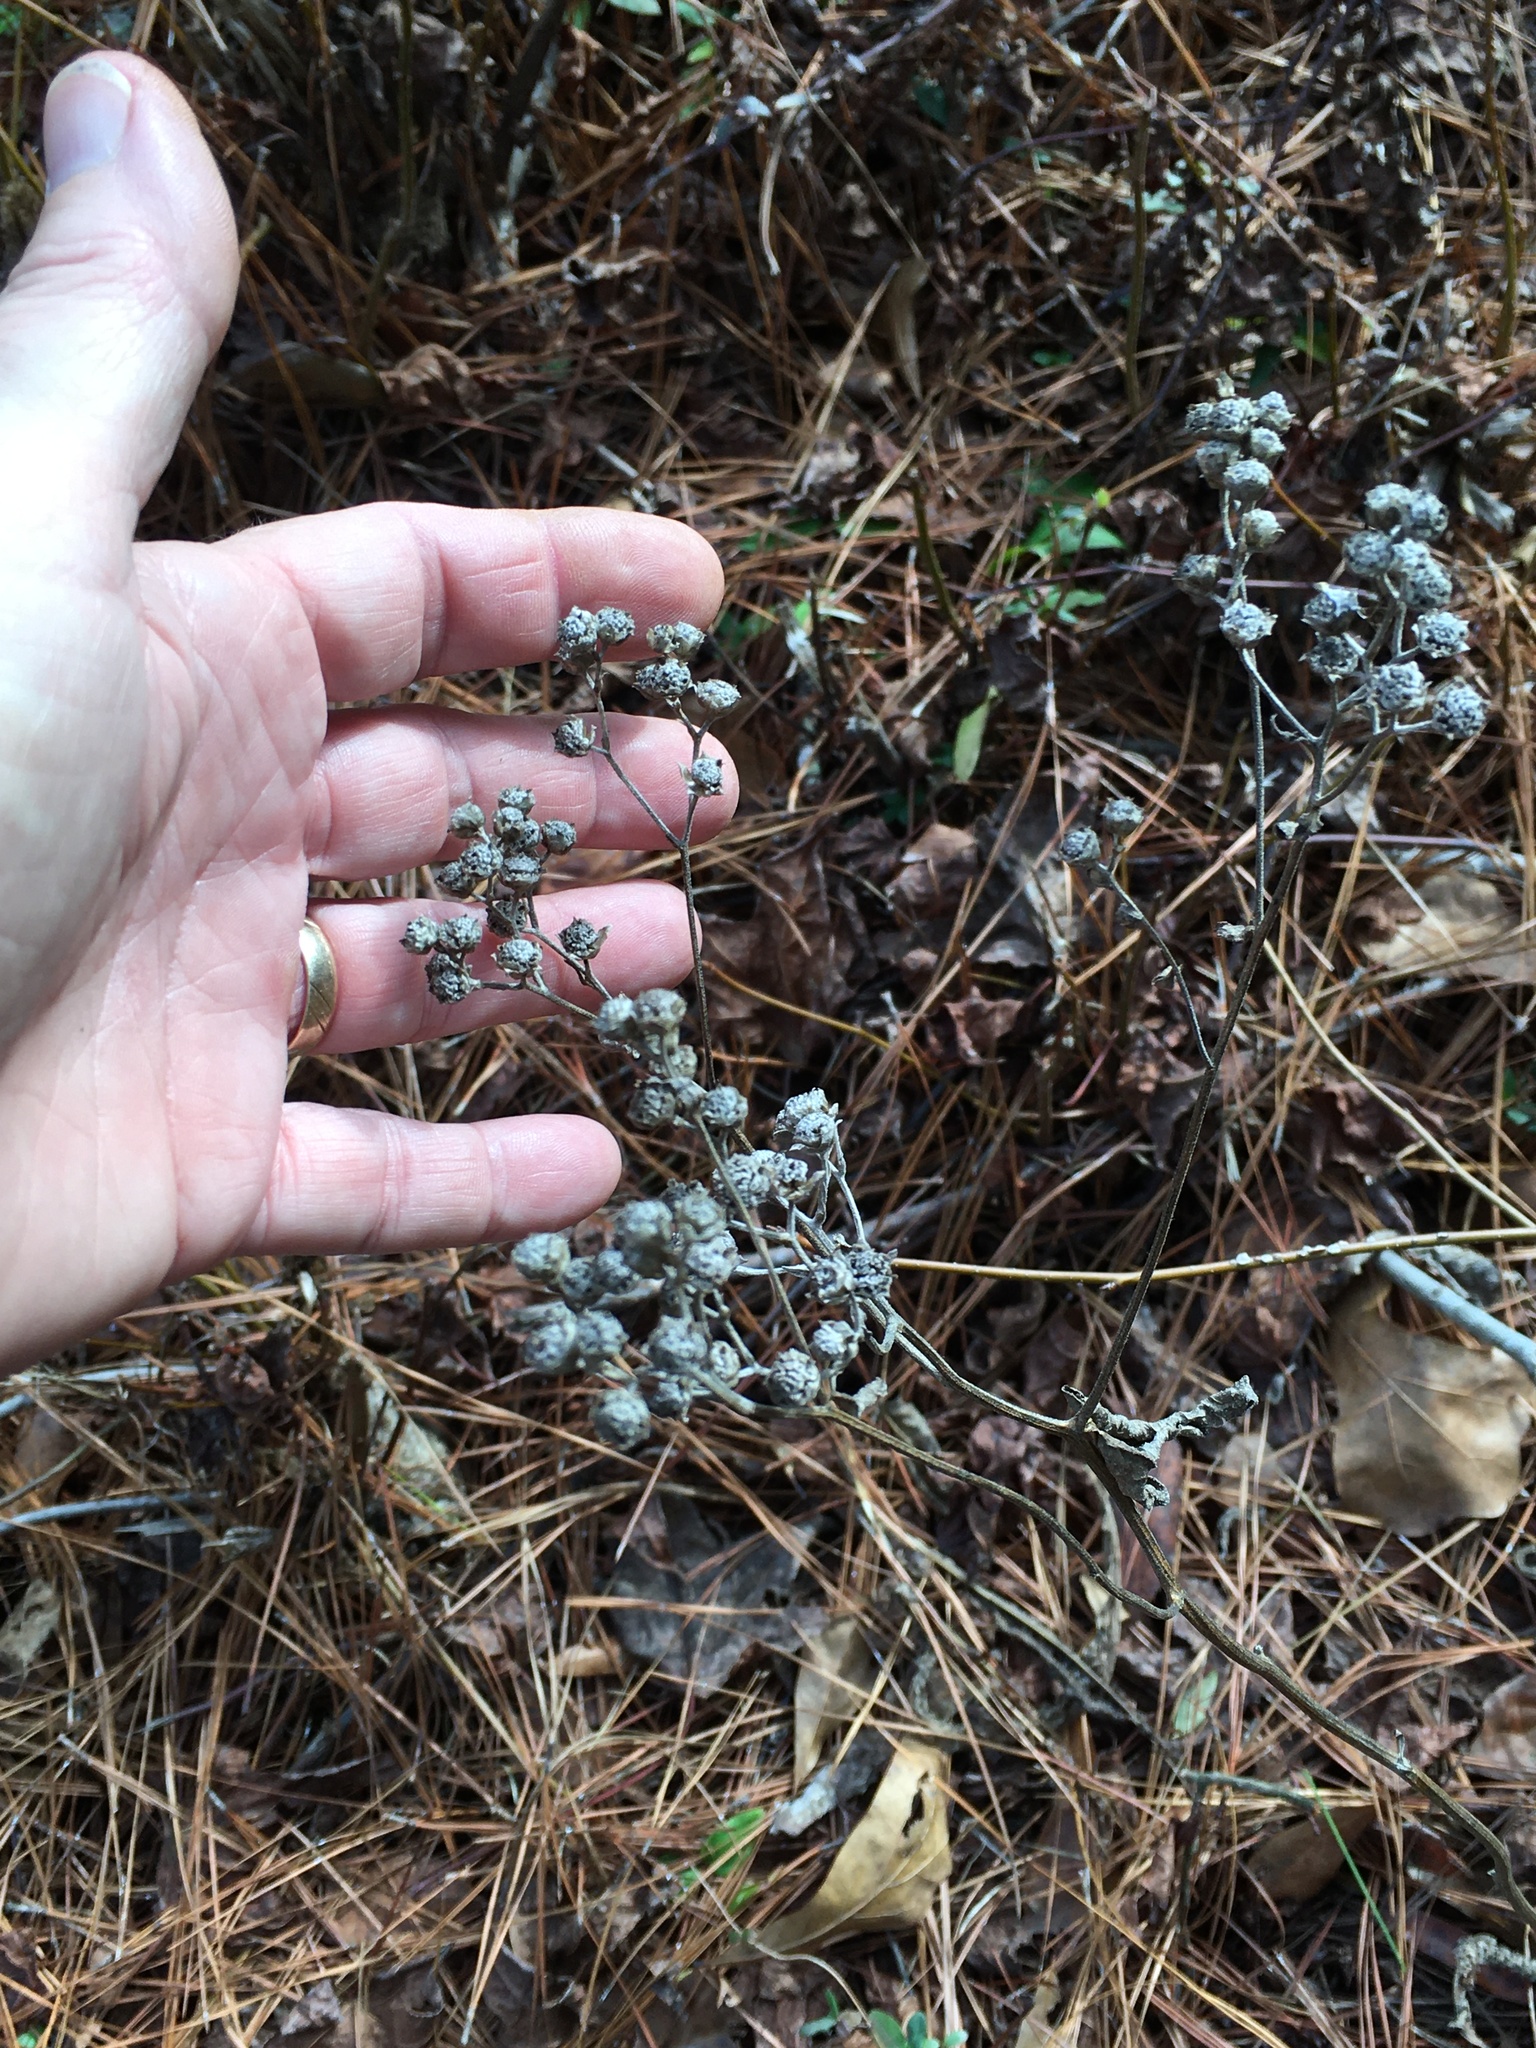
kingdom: Plantae
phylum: Tracheophyta
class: Magnoliopsida
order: Asterales
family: Asteraceae
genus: Parthenium
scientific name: Parthenium integrifolium
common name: American feverfew
